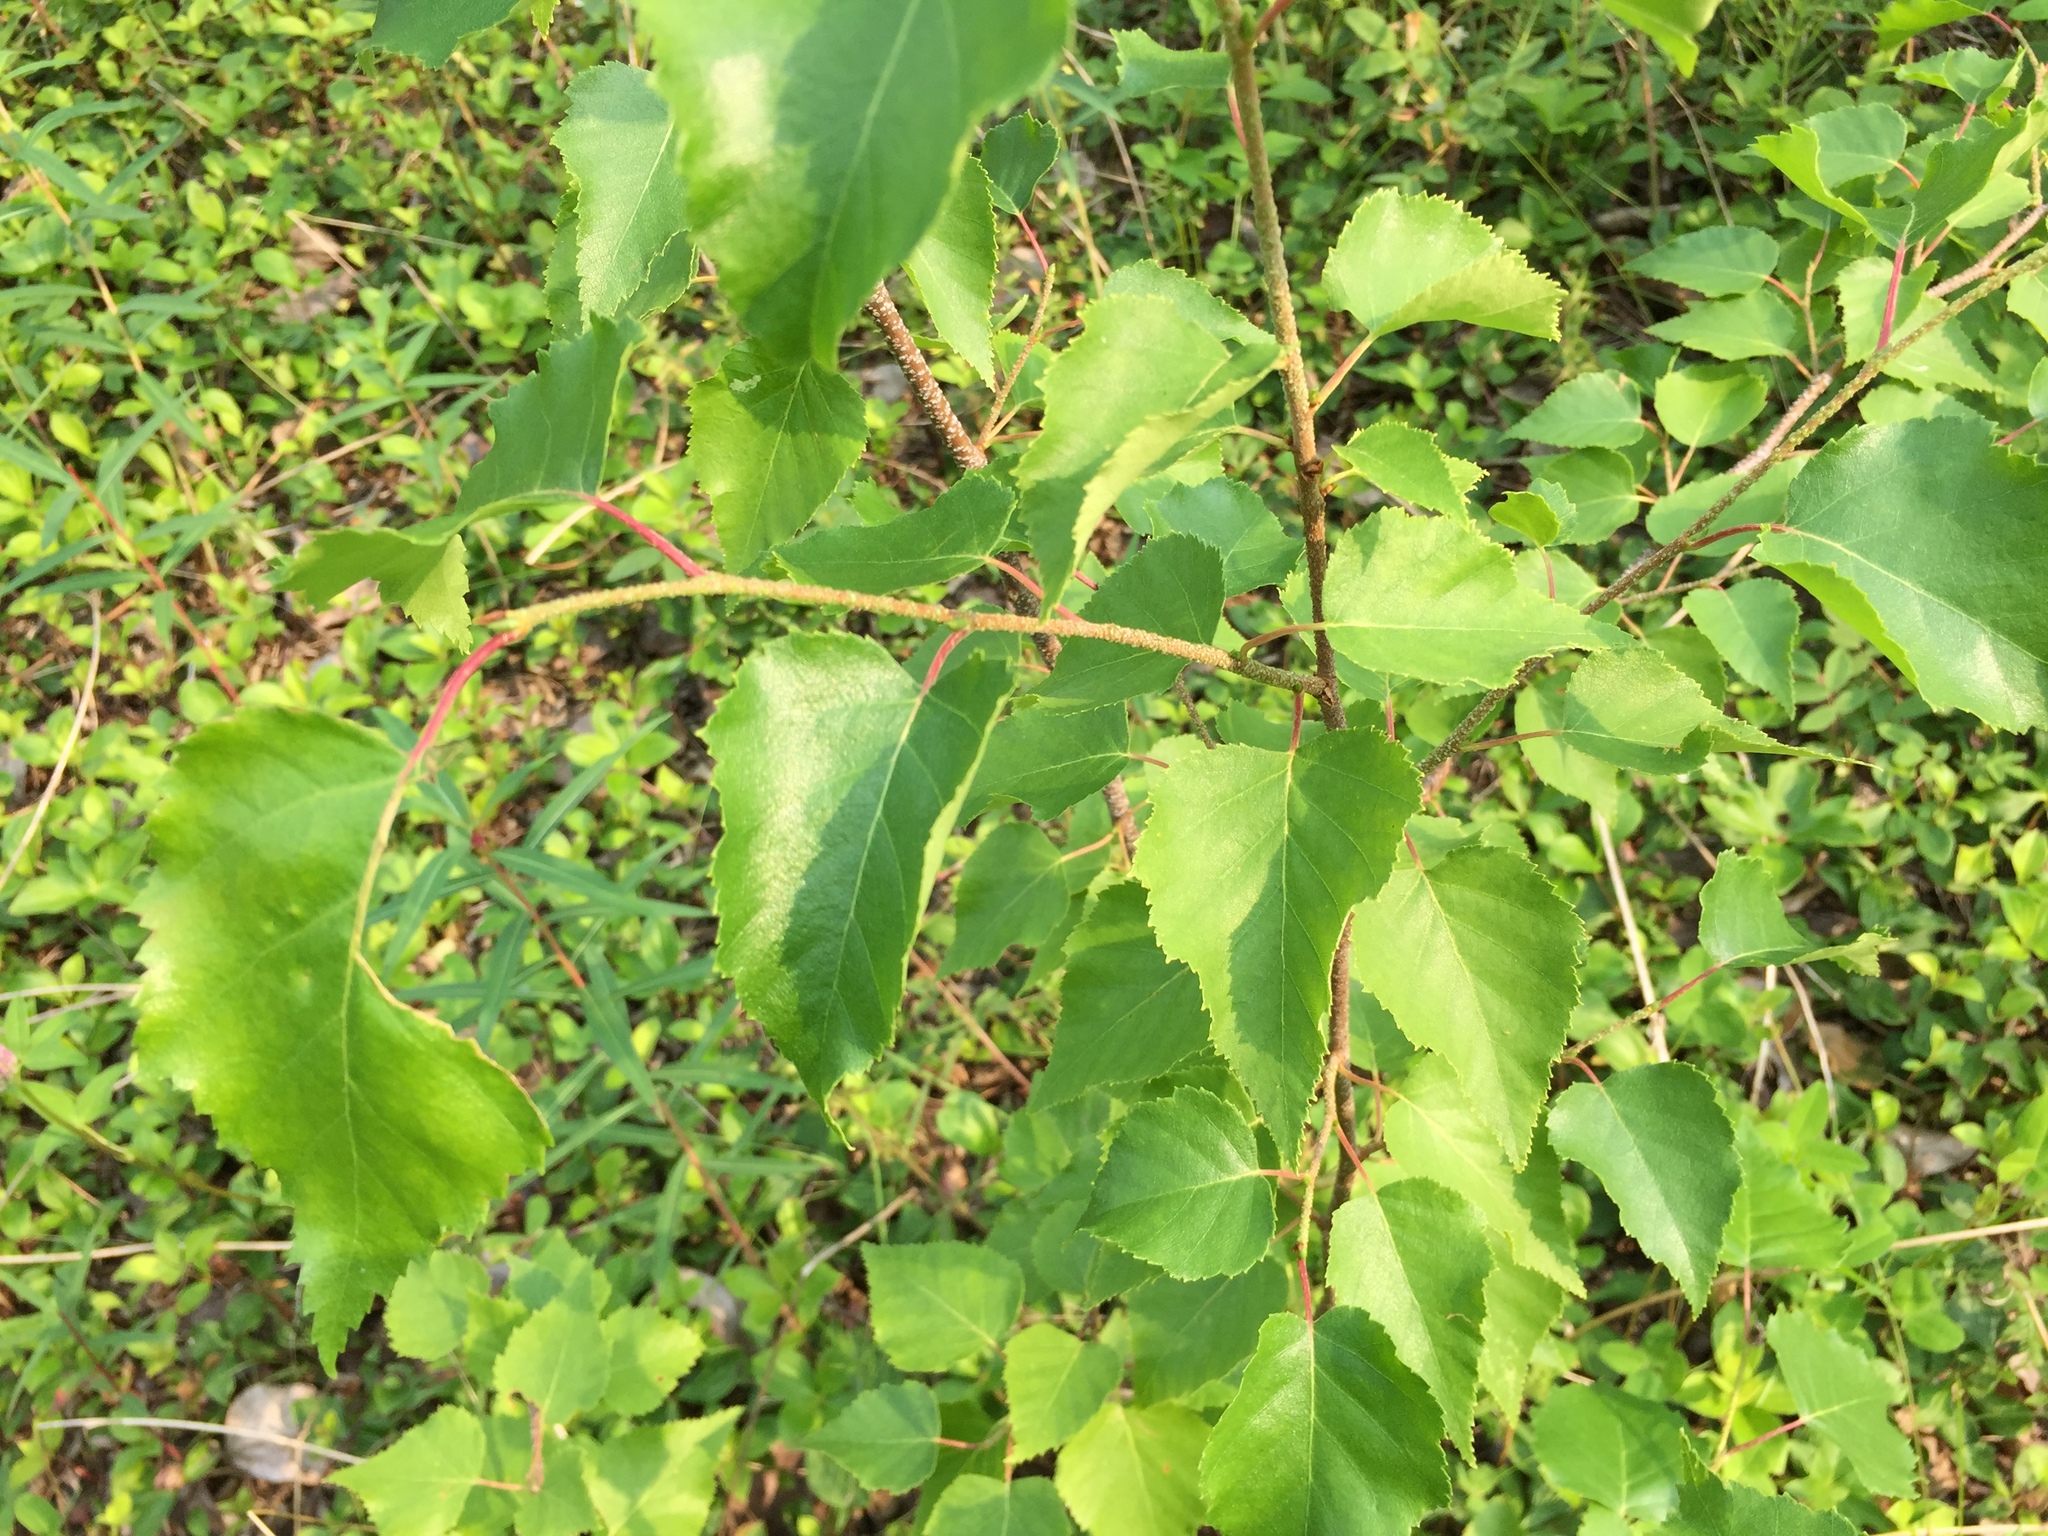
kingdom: Plantae
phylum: Tracheophyta
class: Magnoliopsida
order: Fagales
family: Betulaceae
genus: Betula
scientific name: Betula pendula
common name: Silver birch
